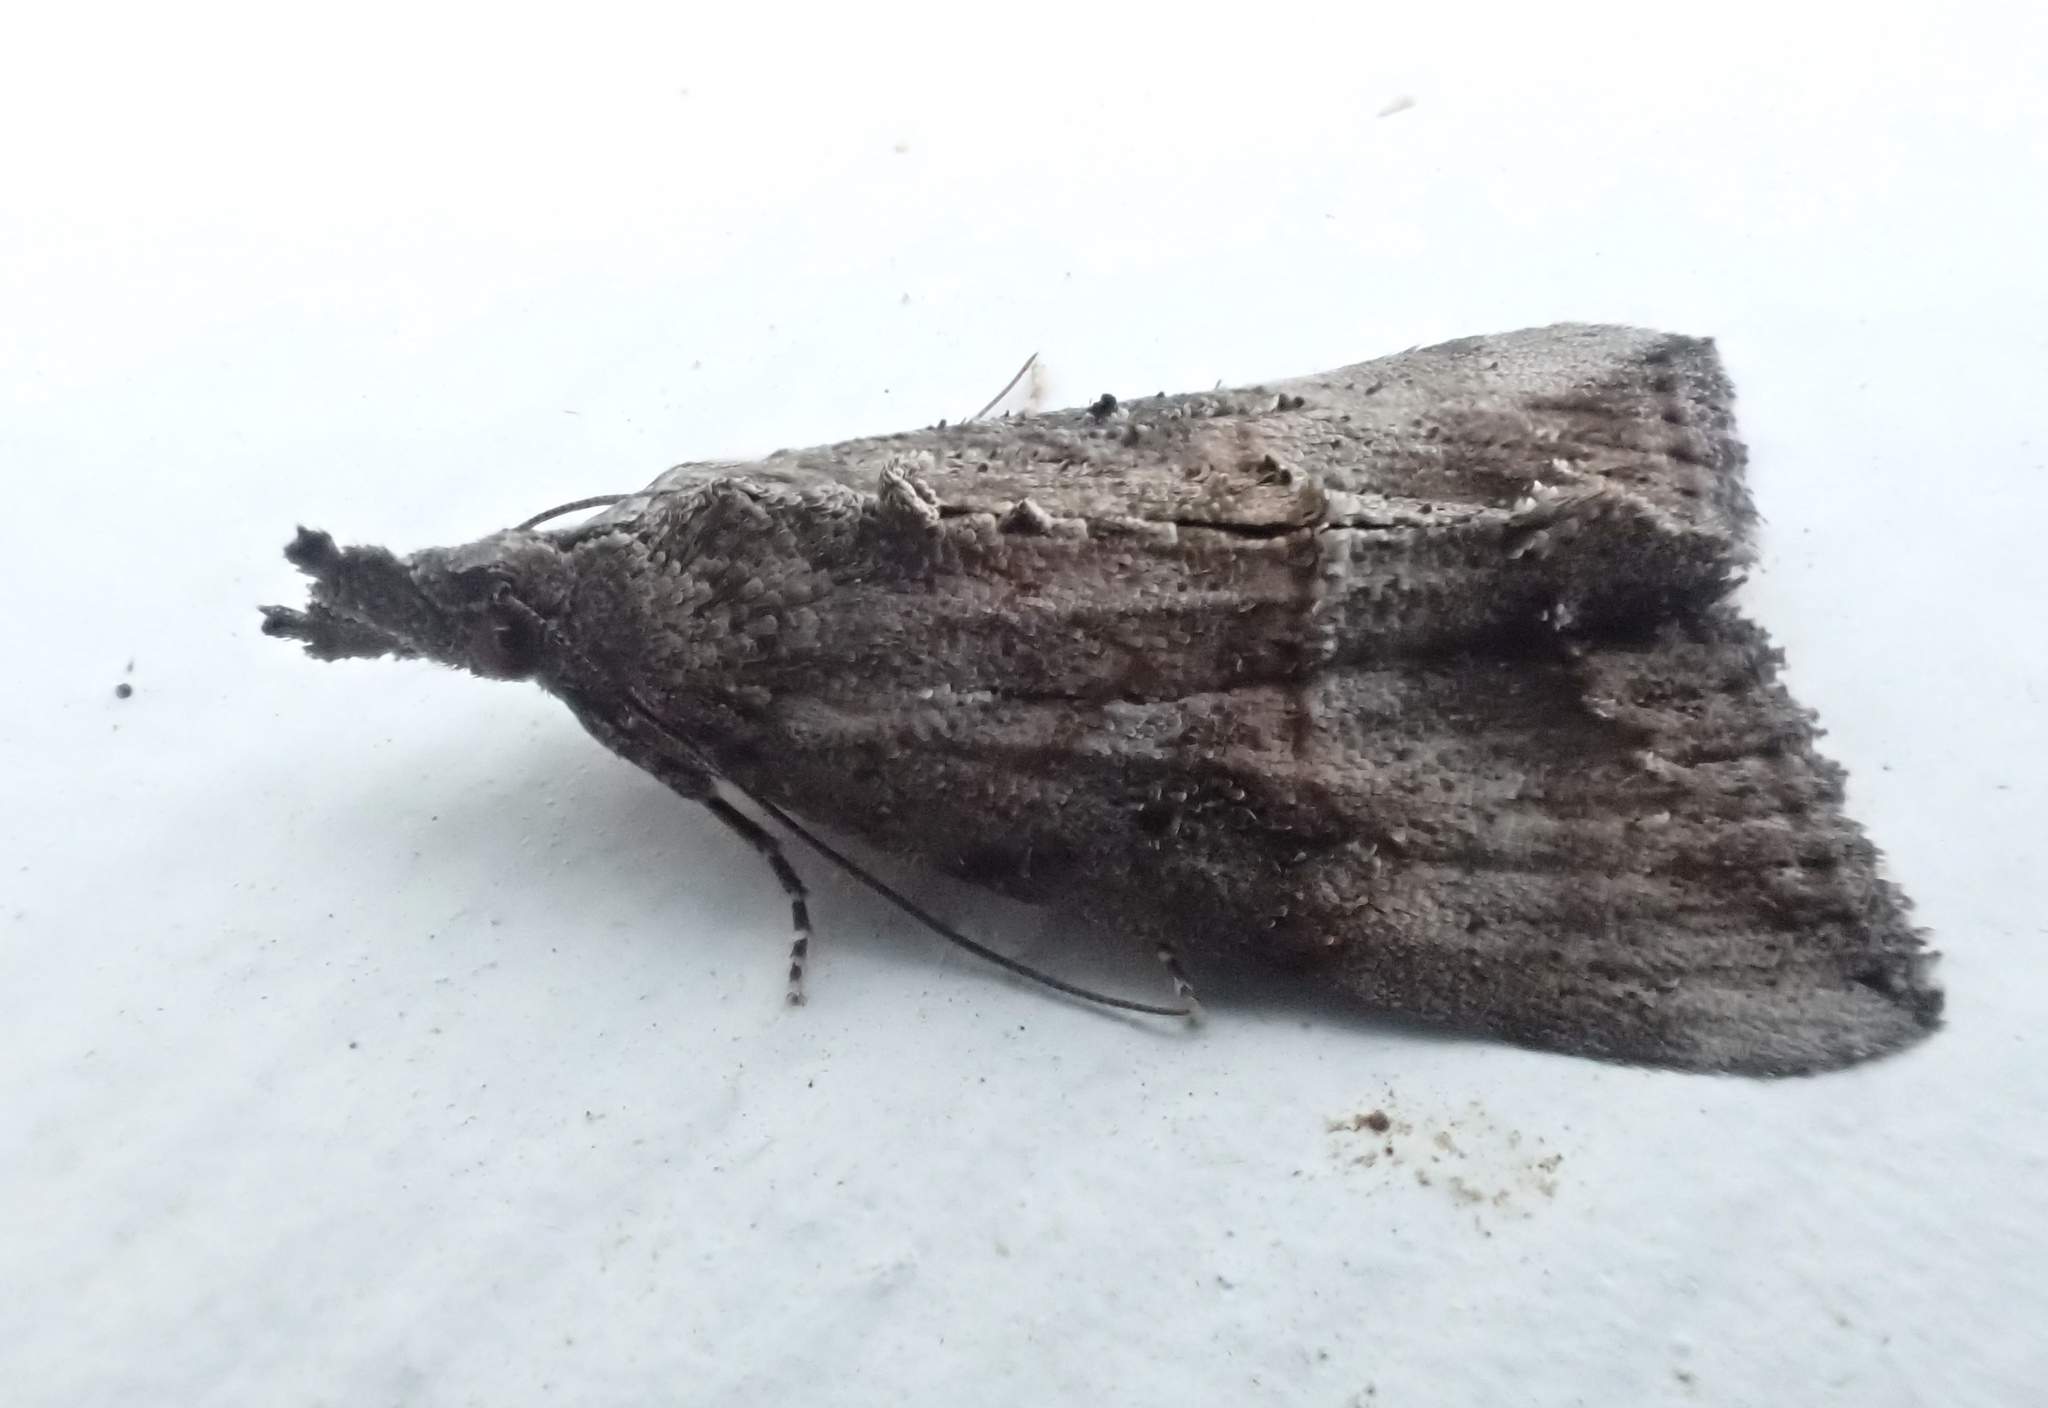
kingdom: Animalia
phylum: Arthropoda
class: Insecta
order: Lepidoptera
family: Erebidae
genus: Hypena
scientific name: Hypena scabra
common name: Green cloverworm
